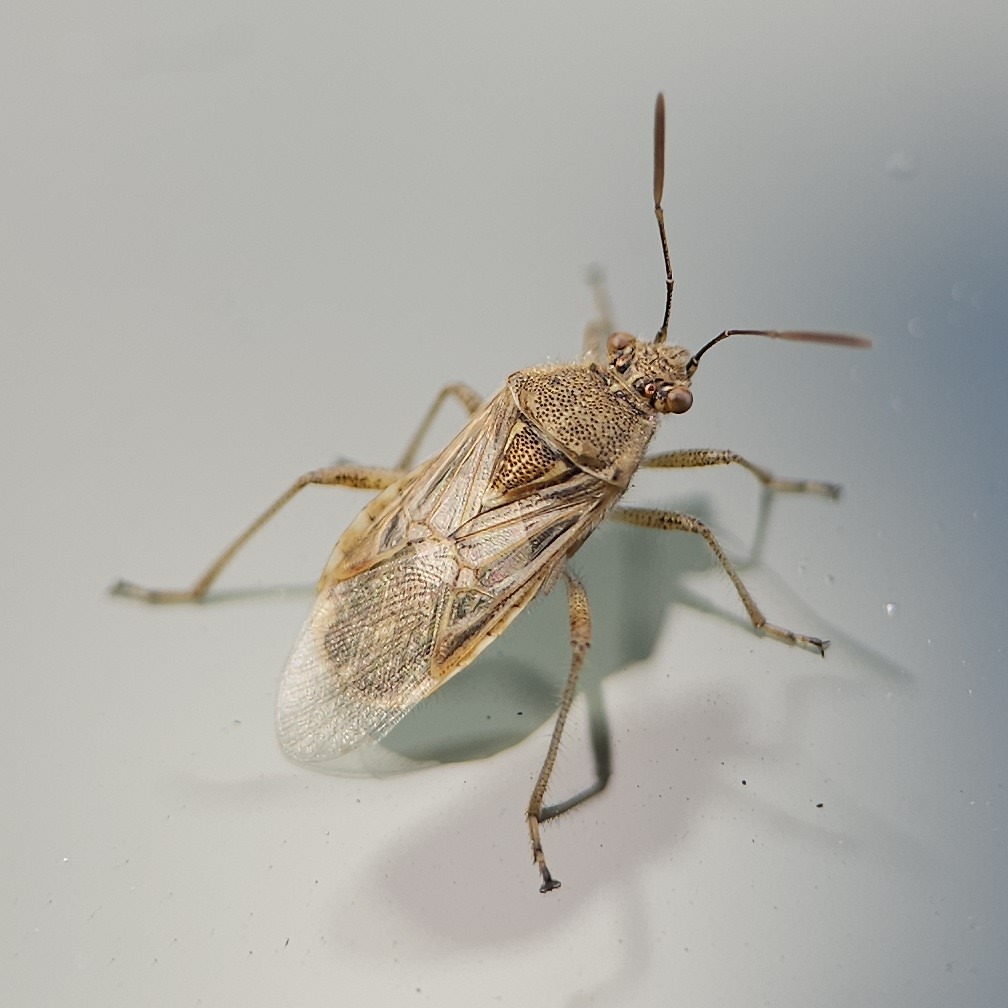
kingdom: Animalia
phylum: Arthropoda
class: Insecta
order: Hemiptera
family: Rhopalidae
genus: Liorhyssus
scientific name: Liorhyssus hyalinus
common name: Scentless plant bug
